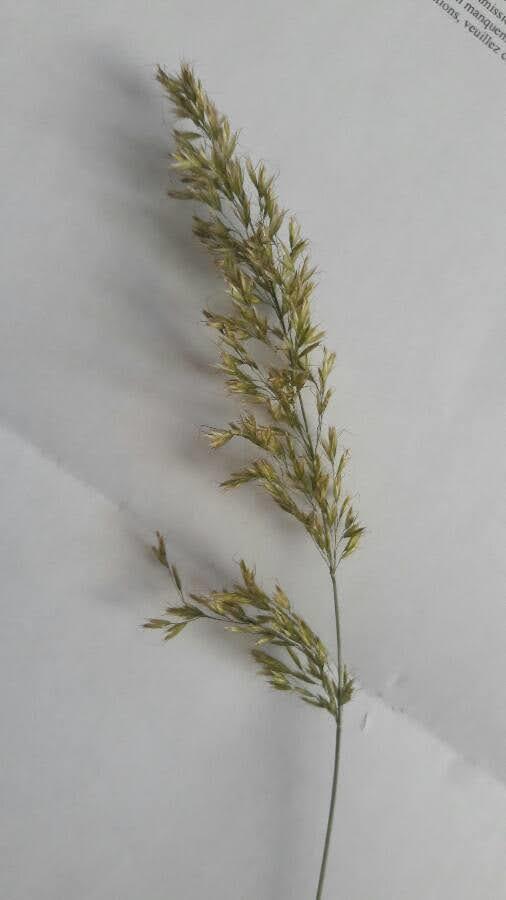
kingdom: Plantae
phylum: Tracheophyta
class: Liliopsida
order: Poales
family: Poaceae
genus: Arrhenatherum
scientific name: Arrhenatherum elatius
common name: Tall oatgrass
